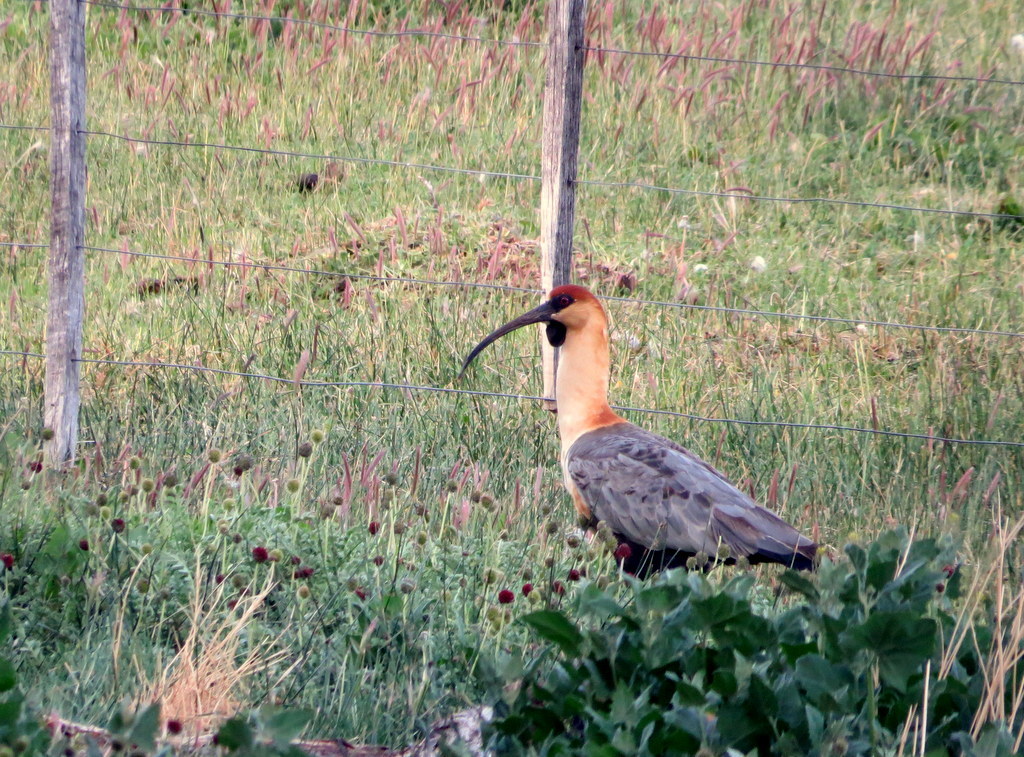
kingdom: Animalia
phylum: Chordata
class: Aves
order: Pelecaniformes
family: Threskiornithidae
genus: Theristicus
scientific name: Theristicus melanopis
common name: Black-faced ibis
